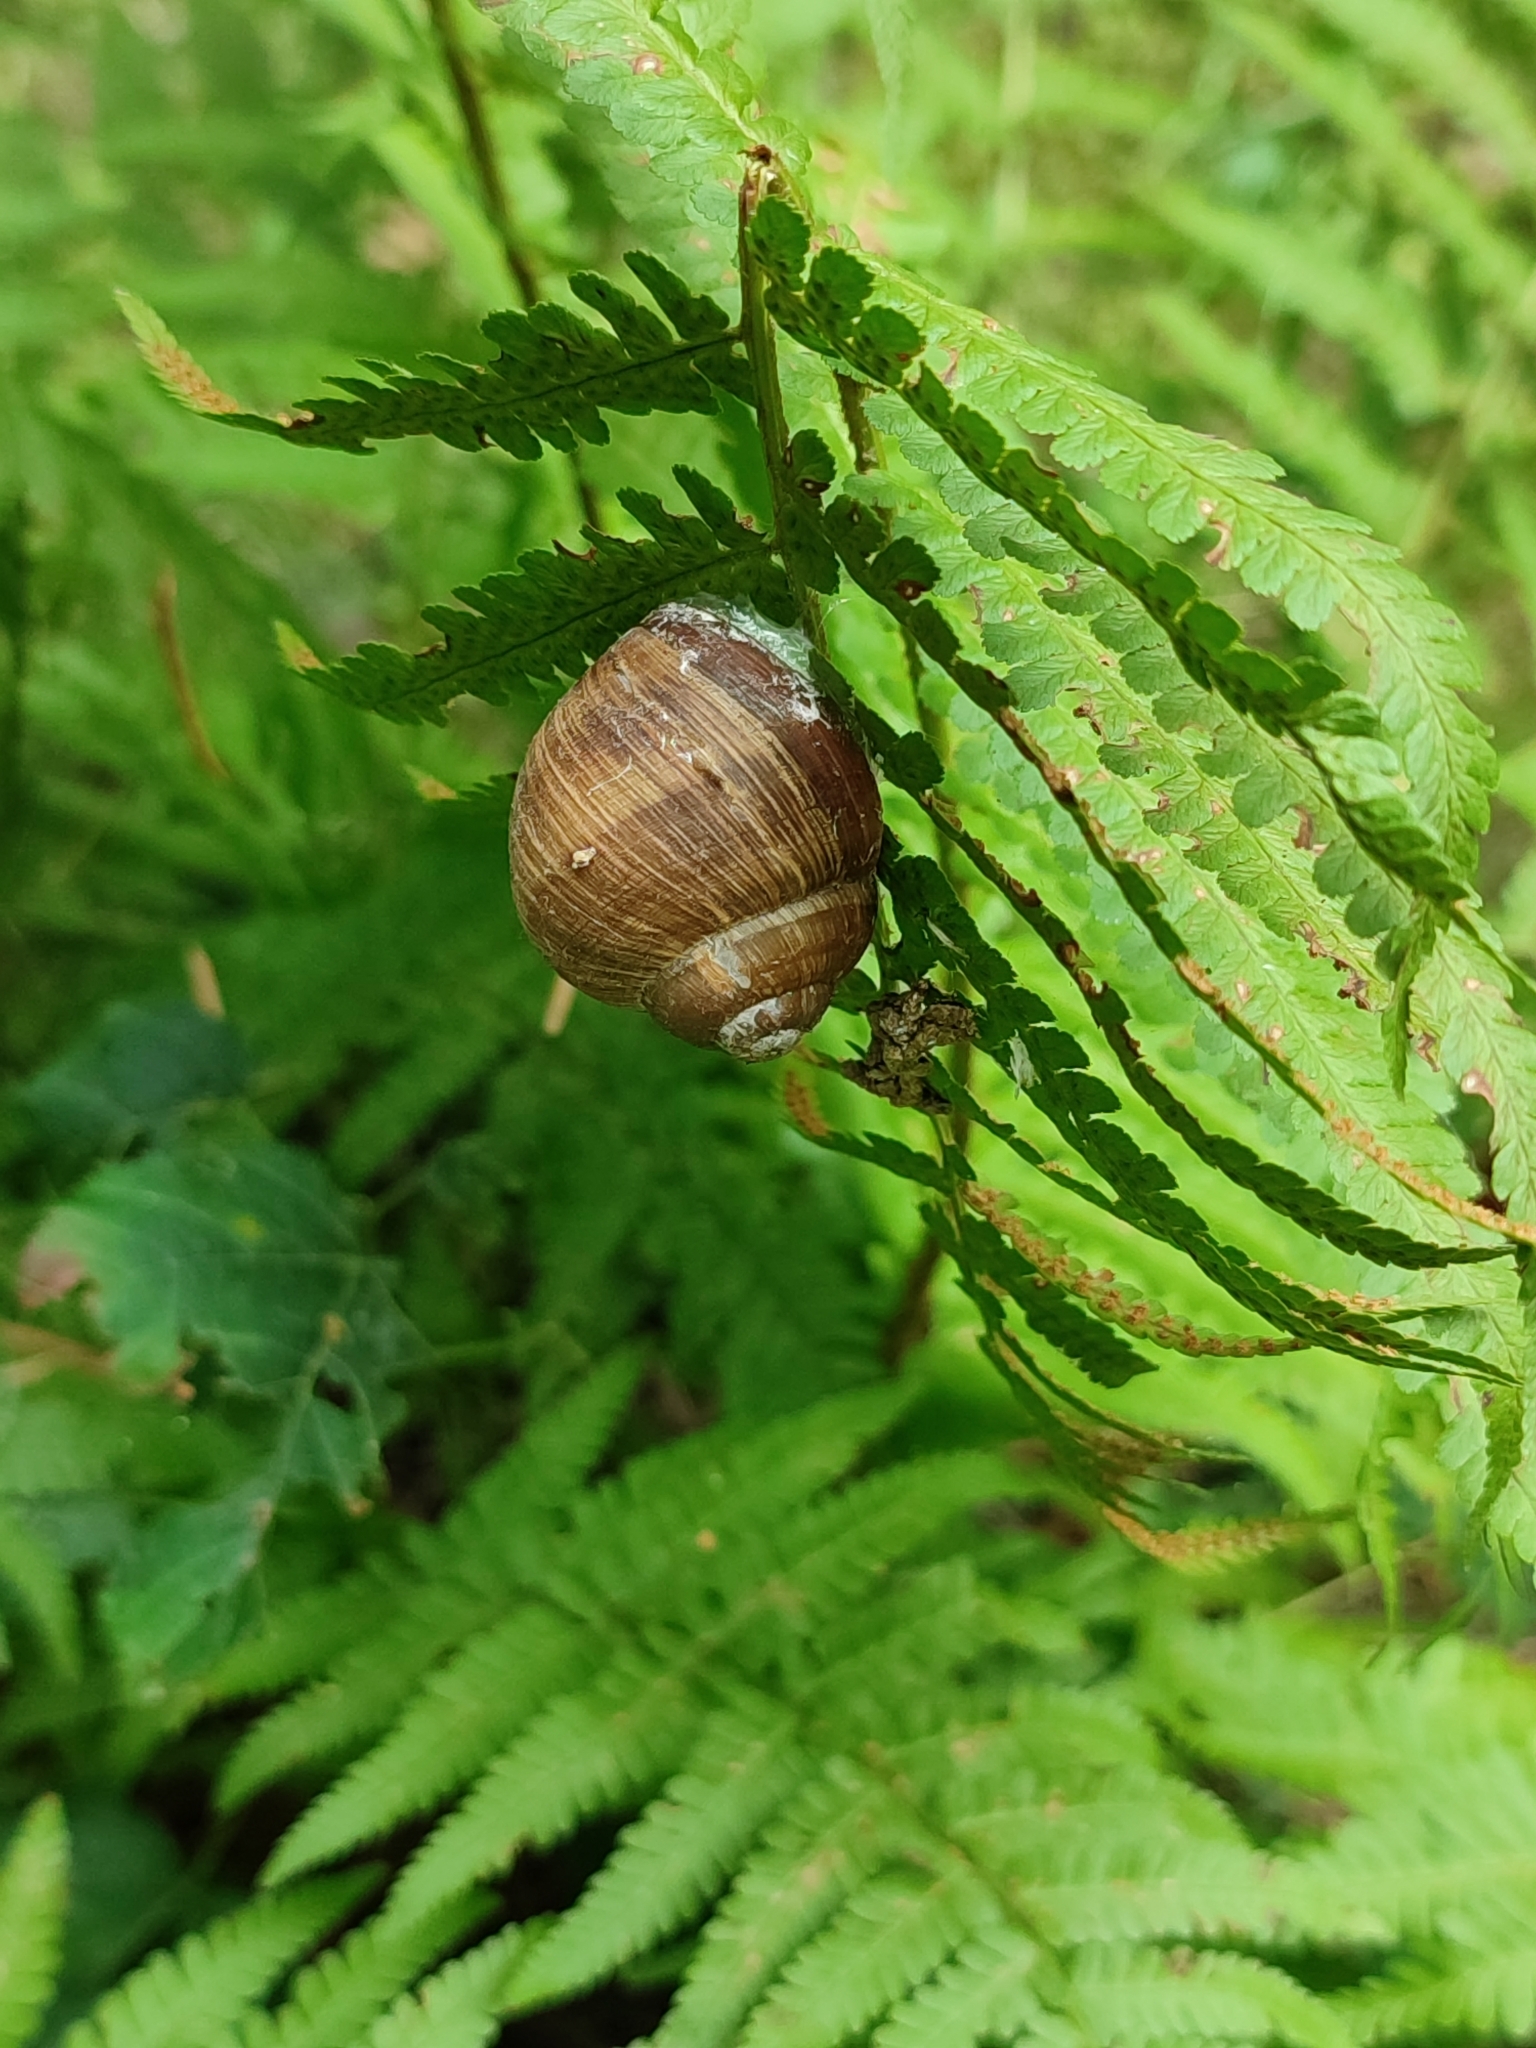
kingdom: Animalia
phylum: Mollusca
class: Gastropoda
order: Stylommatophora
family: Helicidae
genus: Helix
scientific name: Helix pomatia
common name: Roman snail
